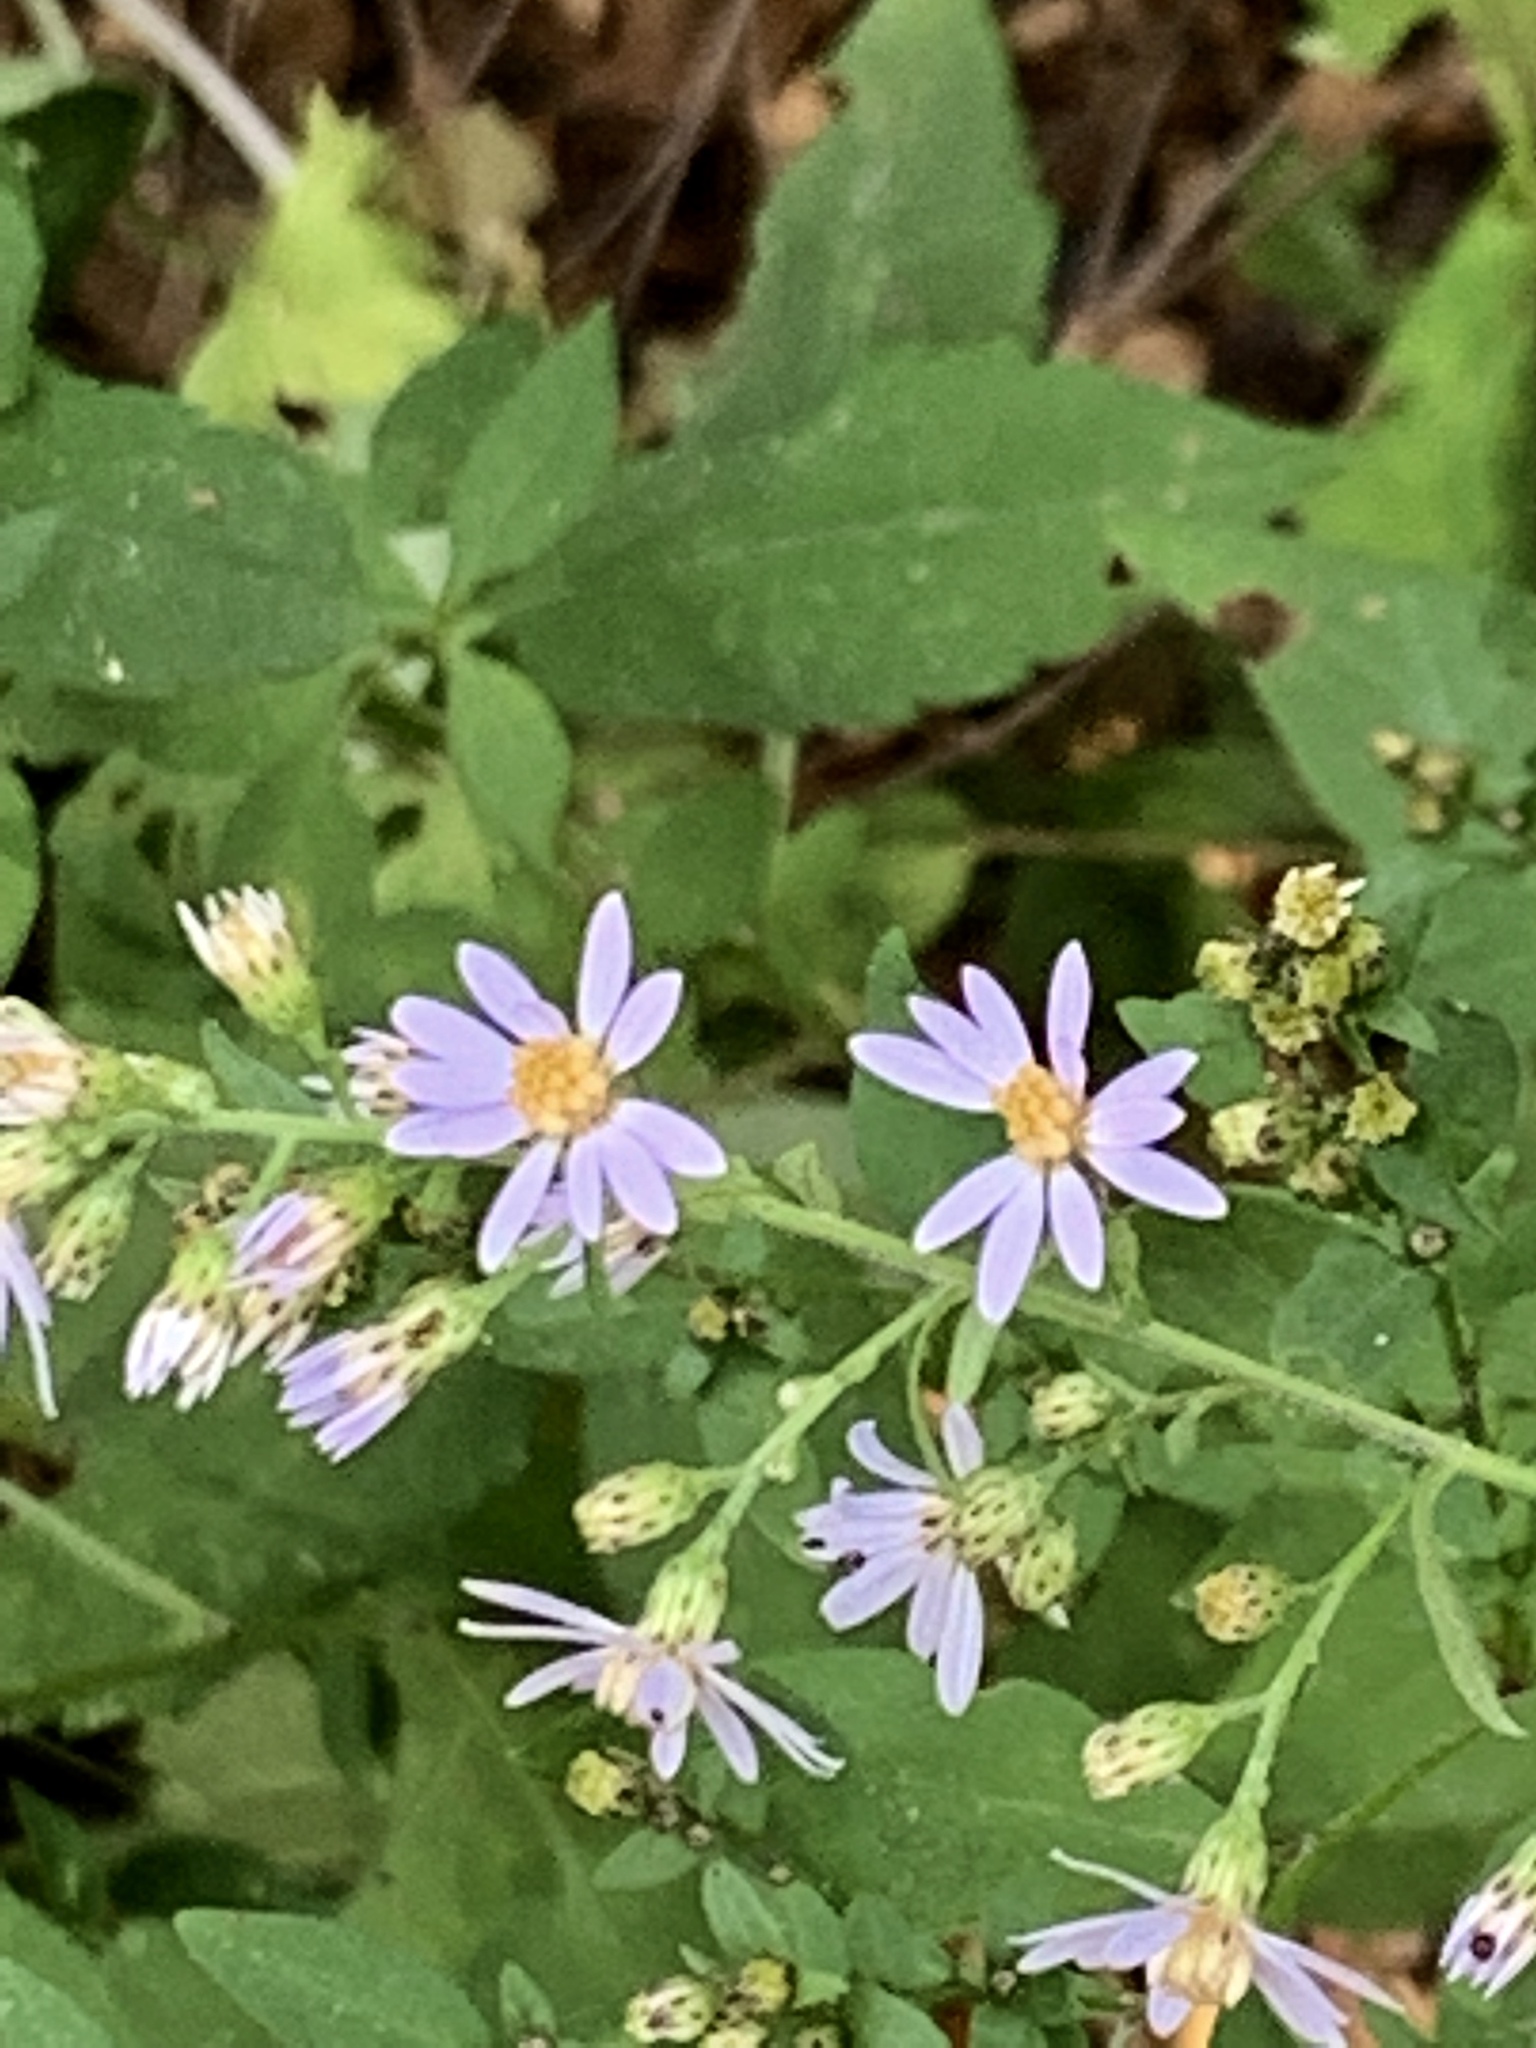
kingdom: Plantae
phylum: Tracheophyta
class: Magnoliopsida
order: Asterales
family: Asteraceae
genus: Symphyotrichum
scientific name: Symphyotrichum cordifolium
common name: Beeweed
